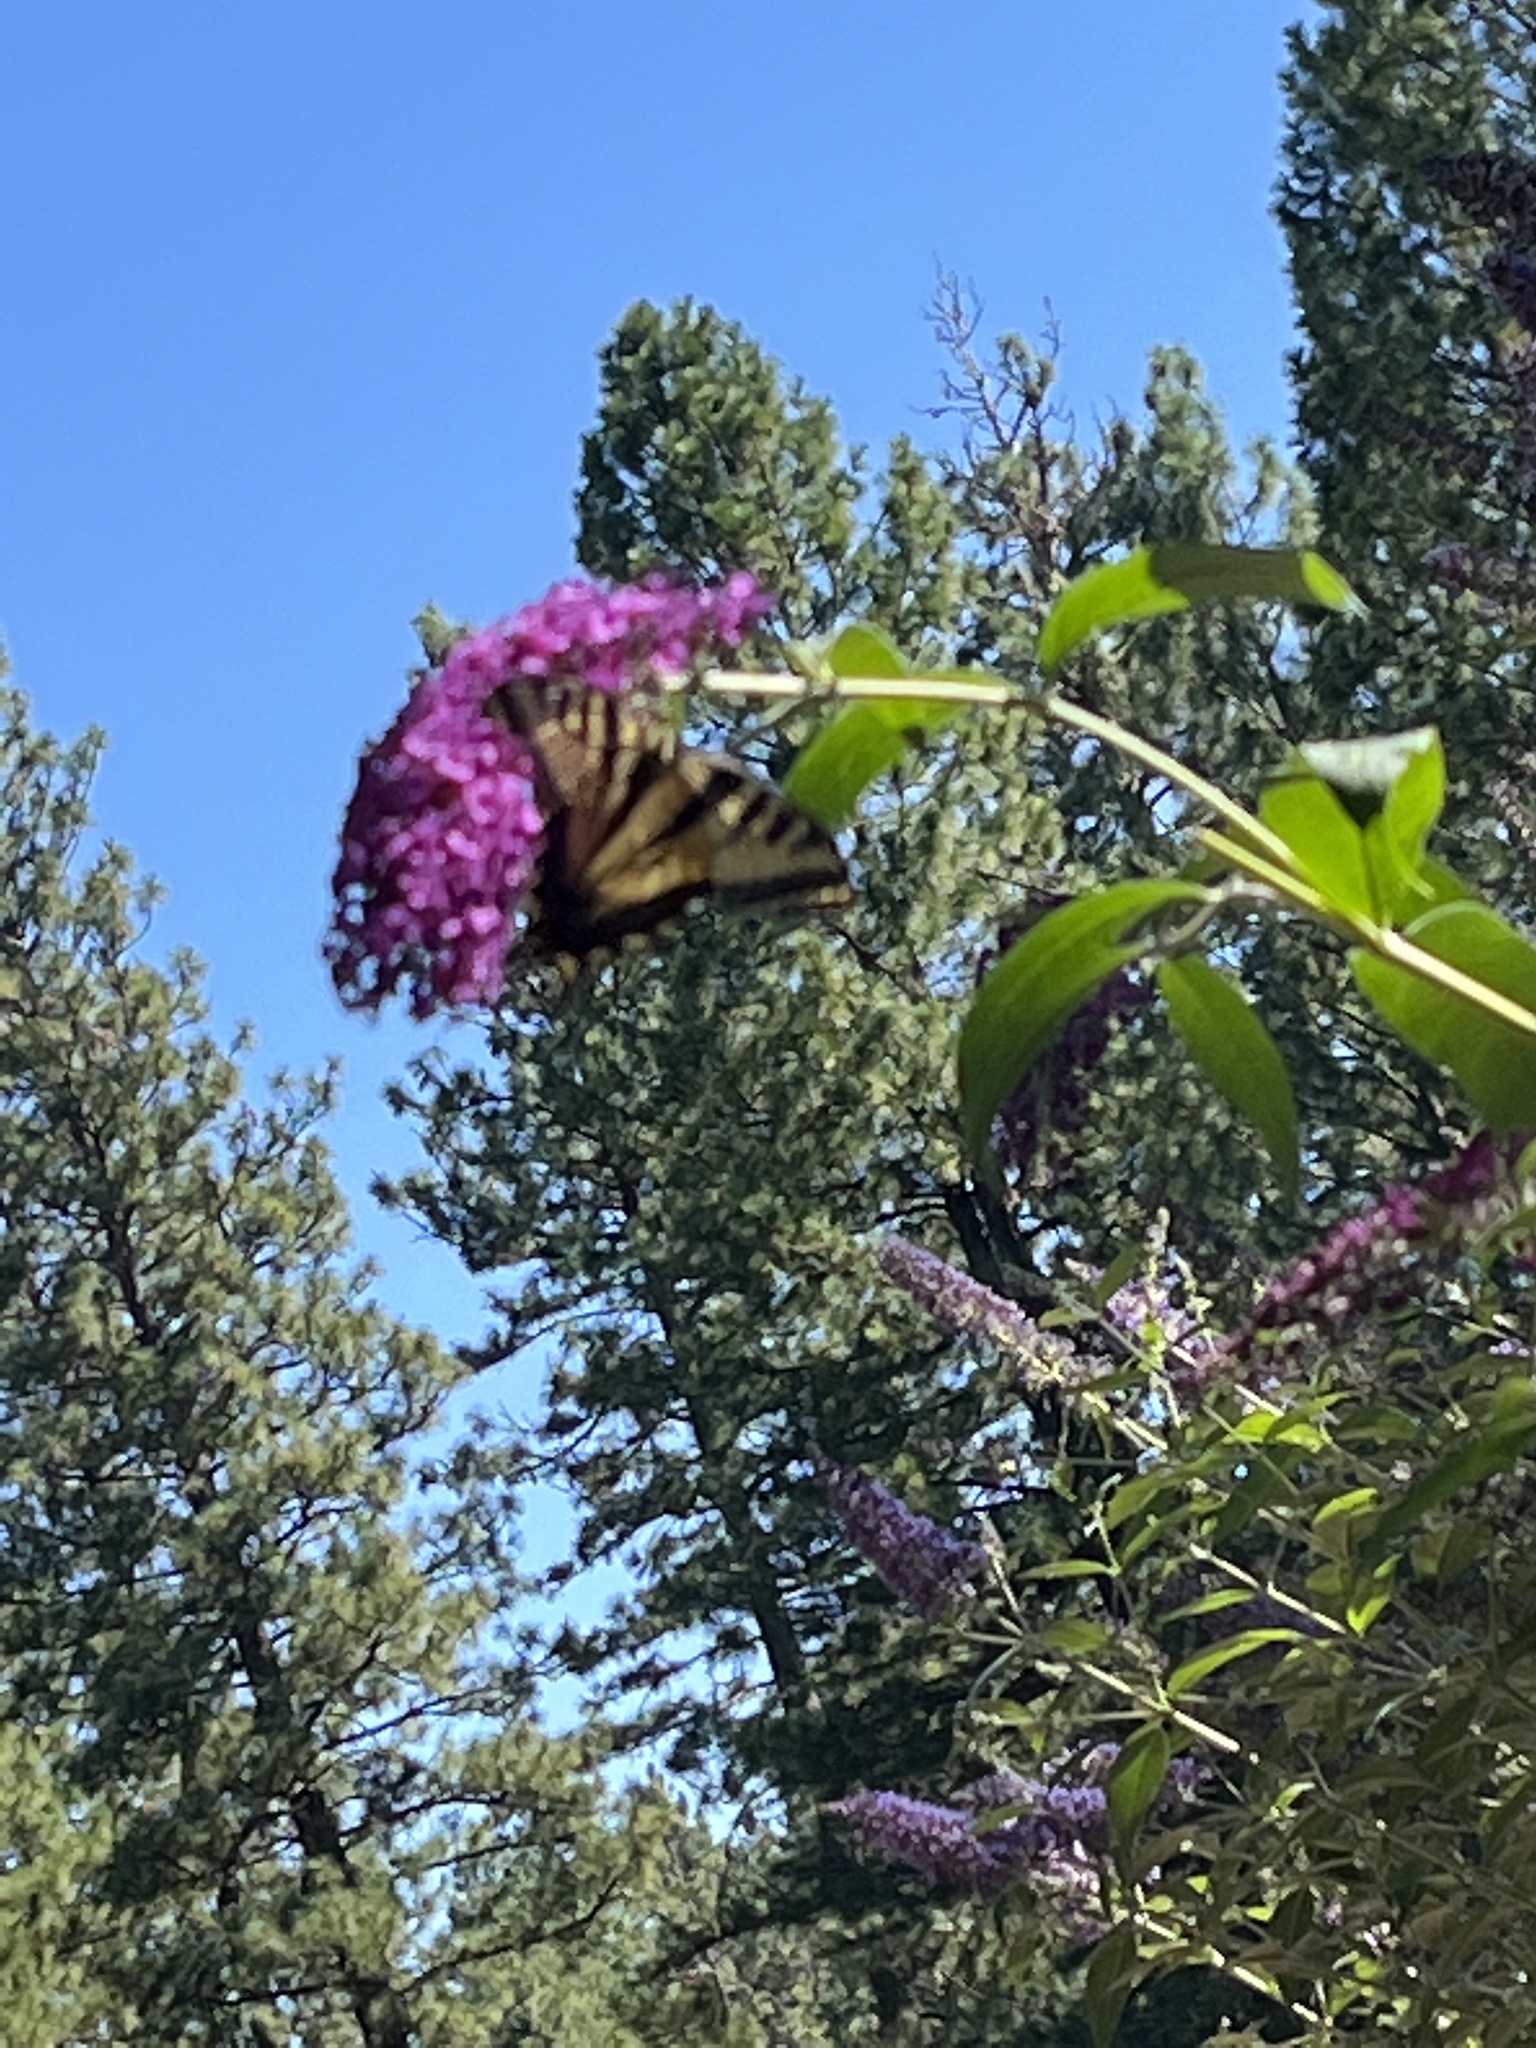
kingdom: Animalia
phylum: Arthropoda
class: Insecta
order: Lepidoptera
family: Papilionidae
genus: Papilio
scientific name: Papilio rutulus
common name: Western tiger swallowtail
